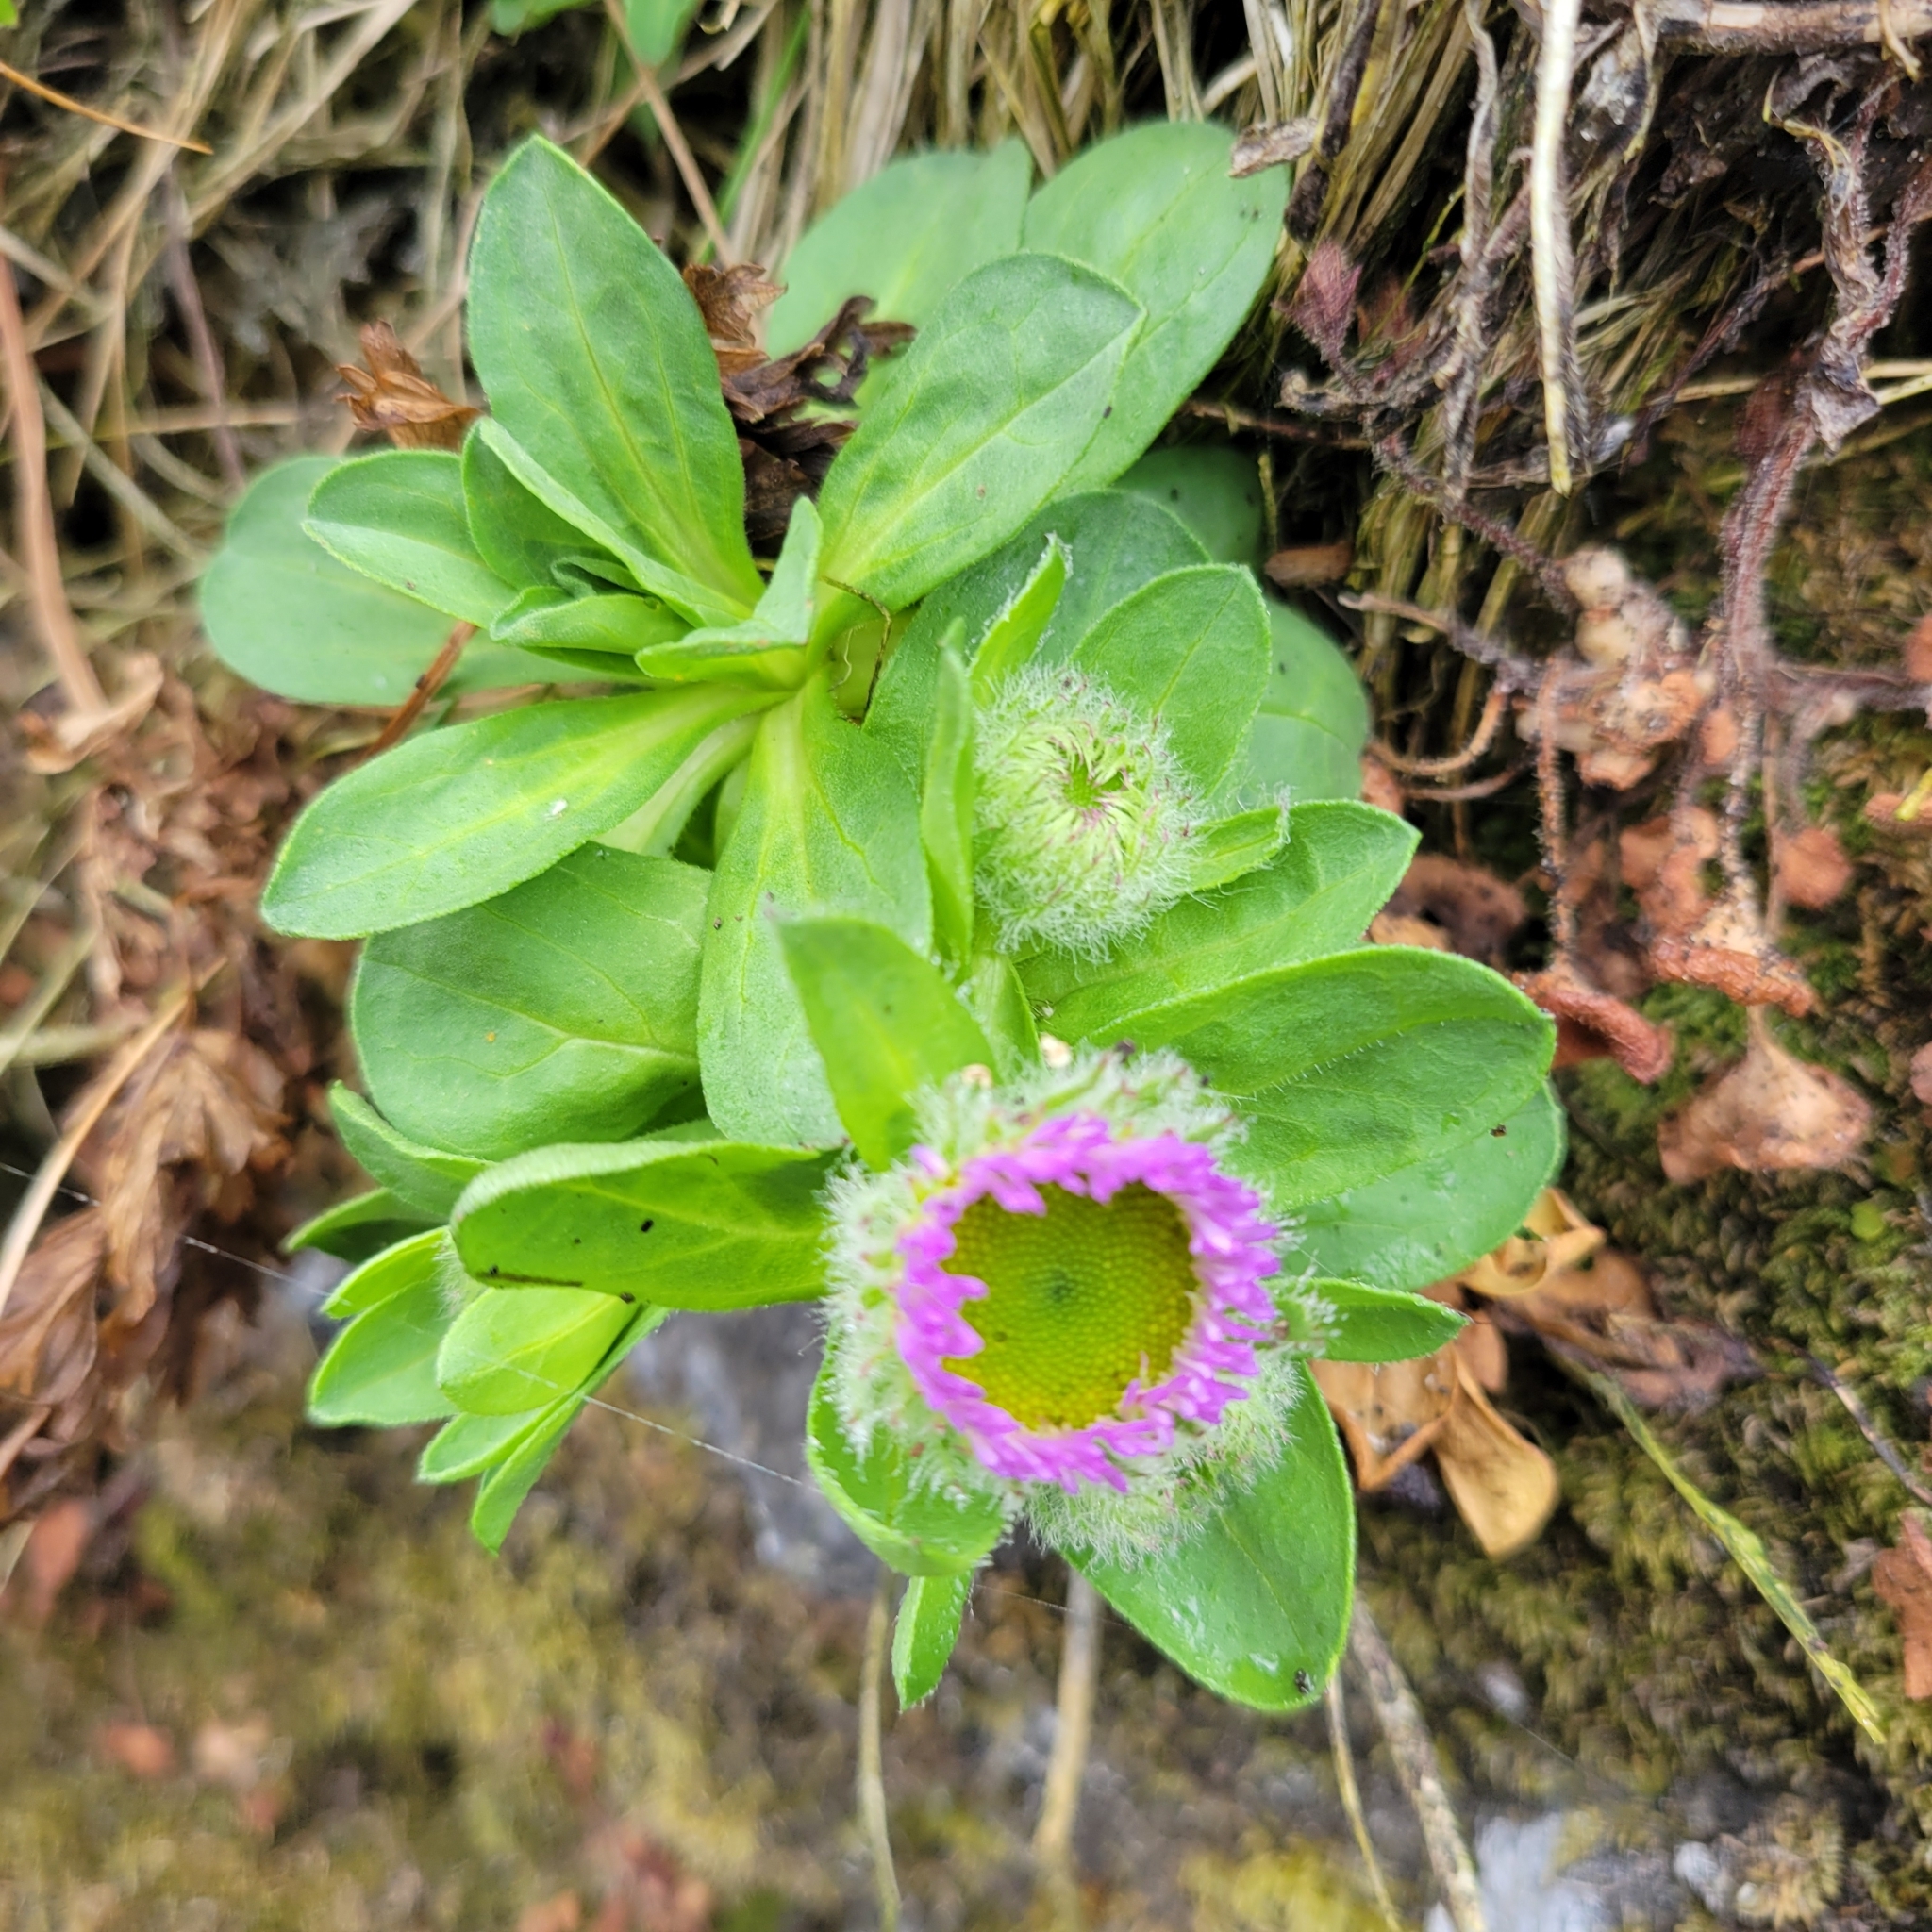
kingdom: Plantae
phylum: Tracheophyta
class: Magnoliopsida
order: Asterales
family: Asteraceae
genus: Erigeron
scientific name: Erigeron glaucus
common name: Seaside daisy
